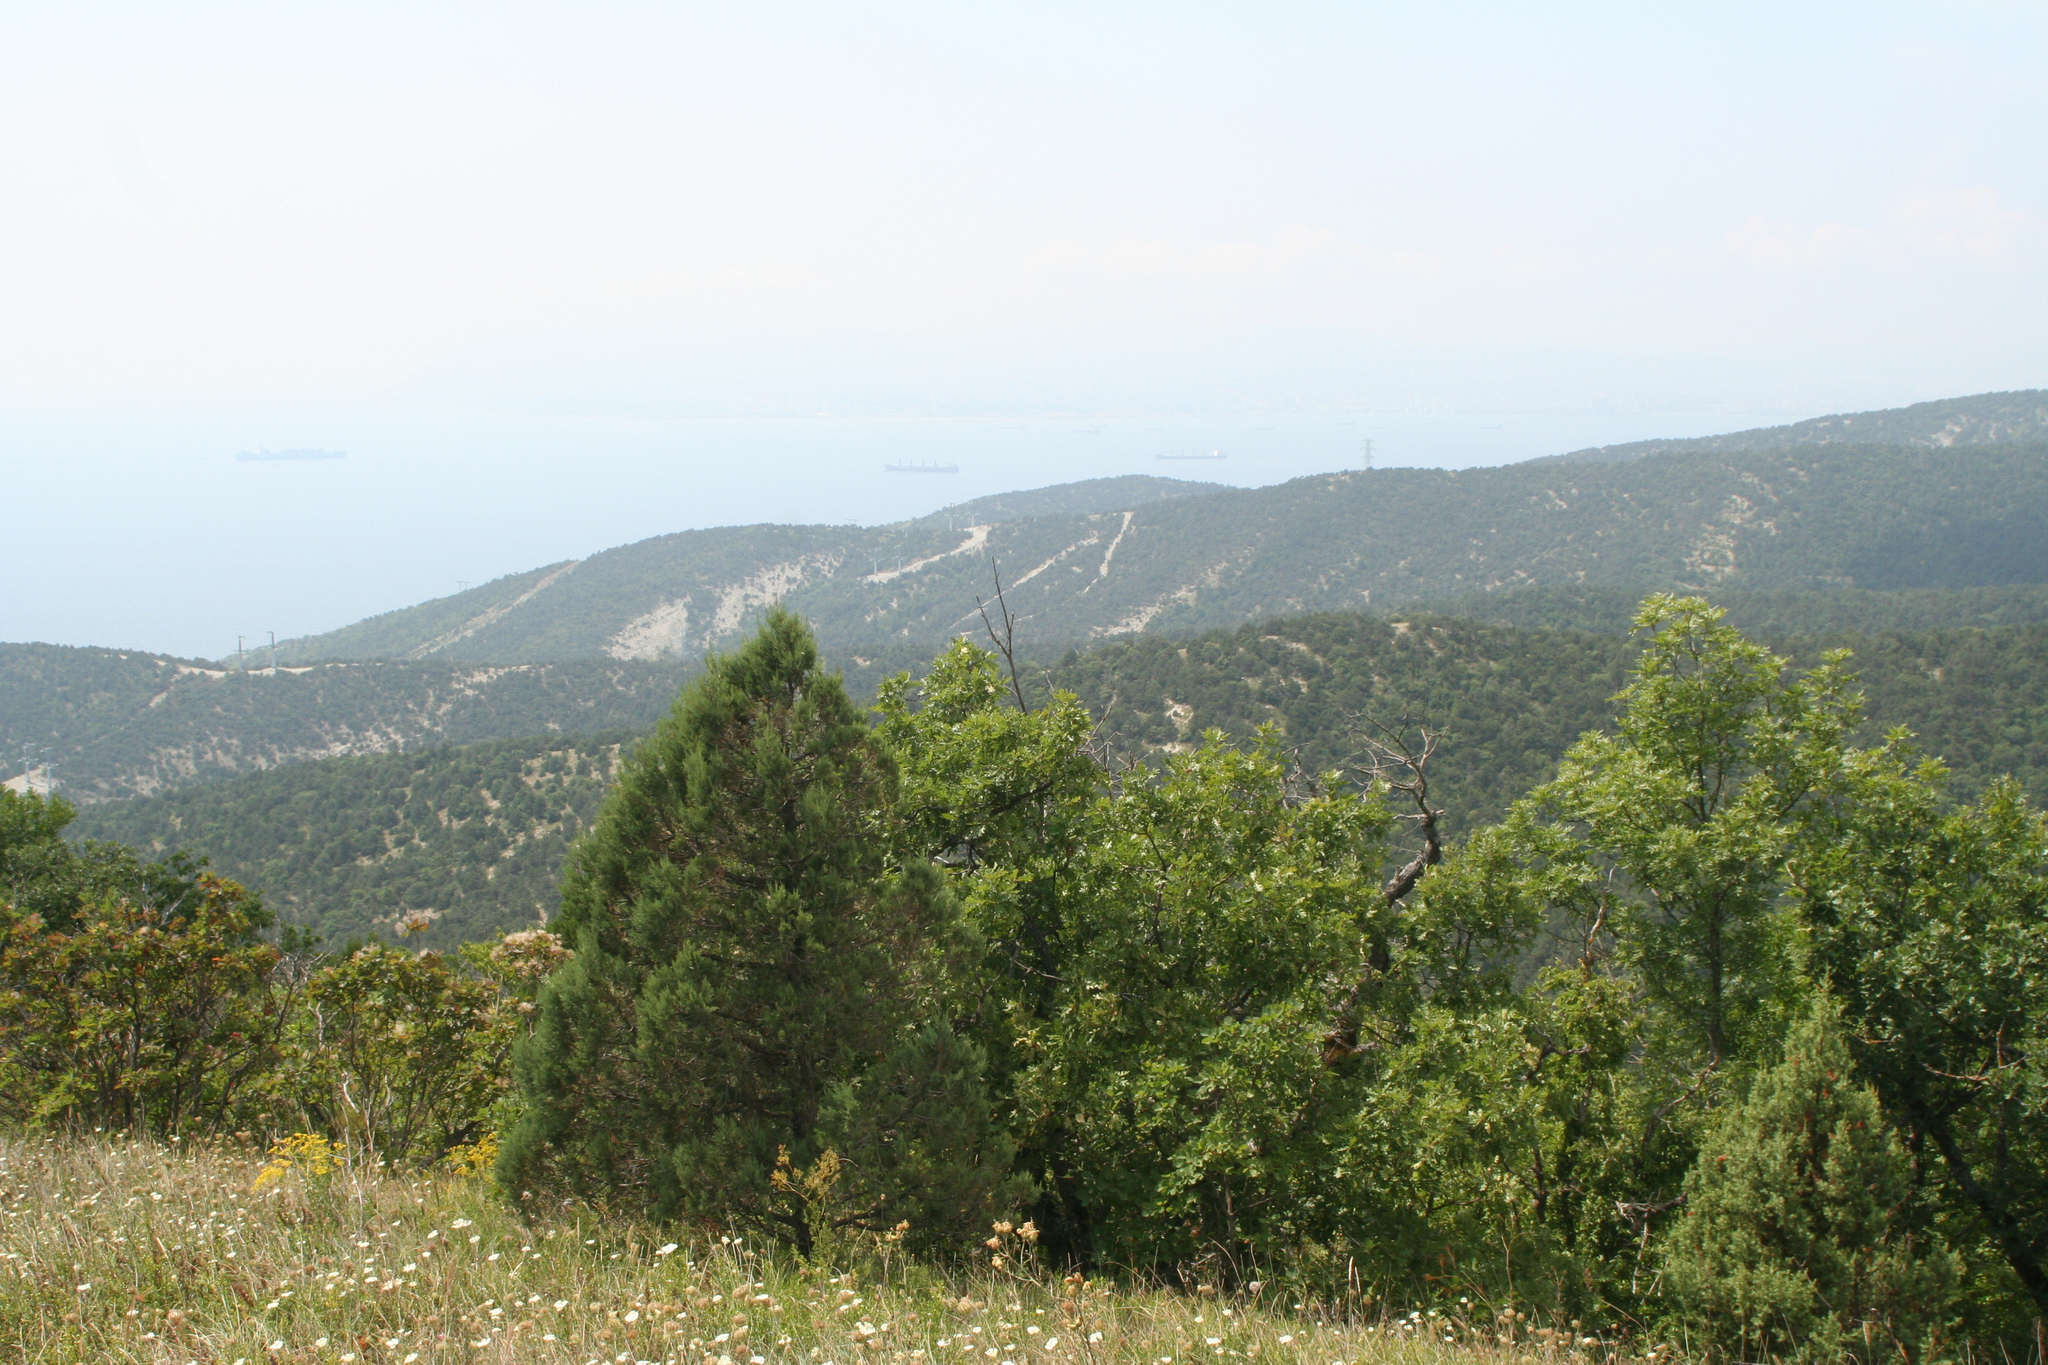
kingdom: Plantae
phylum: Tracheophyta
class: Pinopsida
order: Pinales
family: Cupressaceae
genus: Juniperus
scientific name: Juniperus excelsa
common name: Crimean juniper
